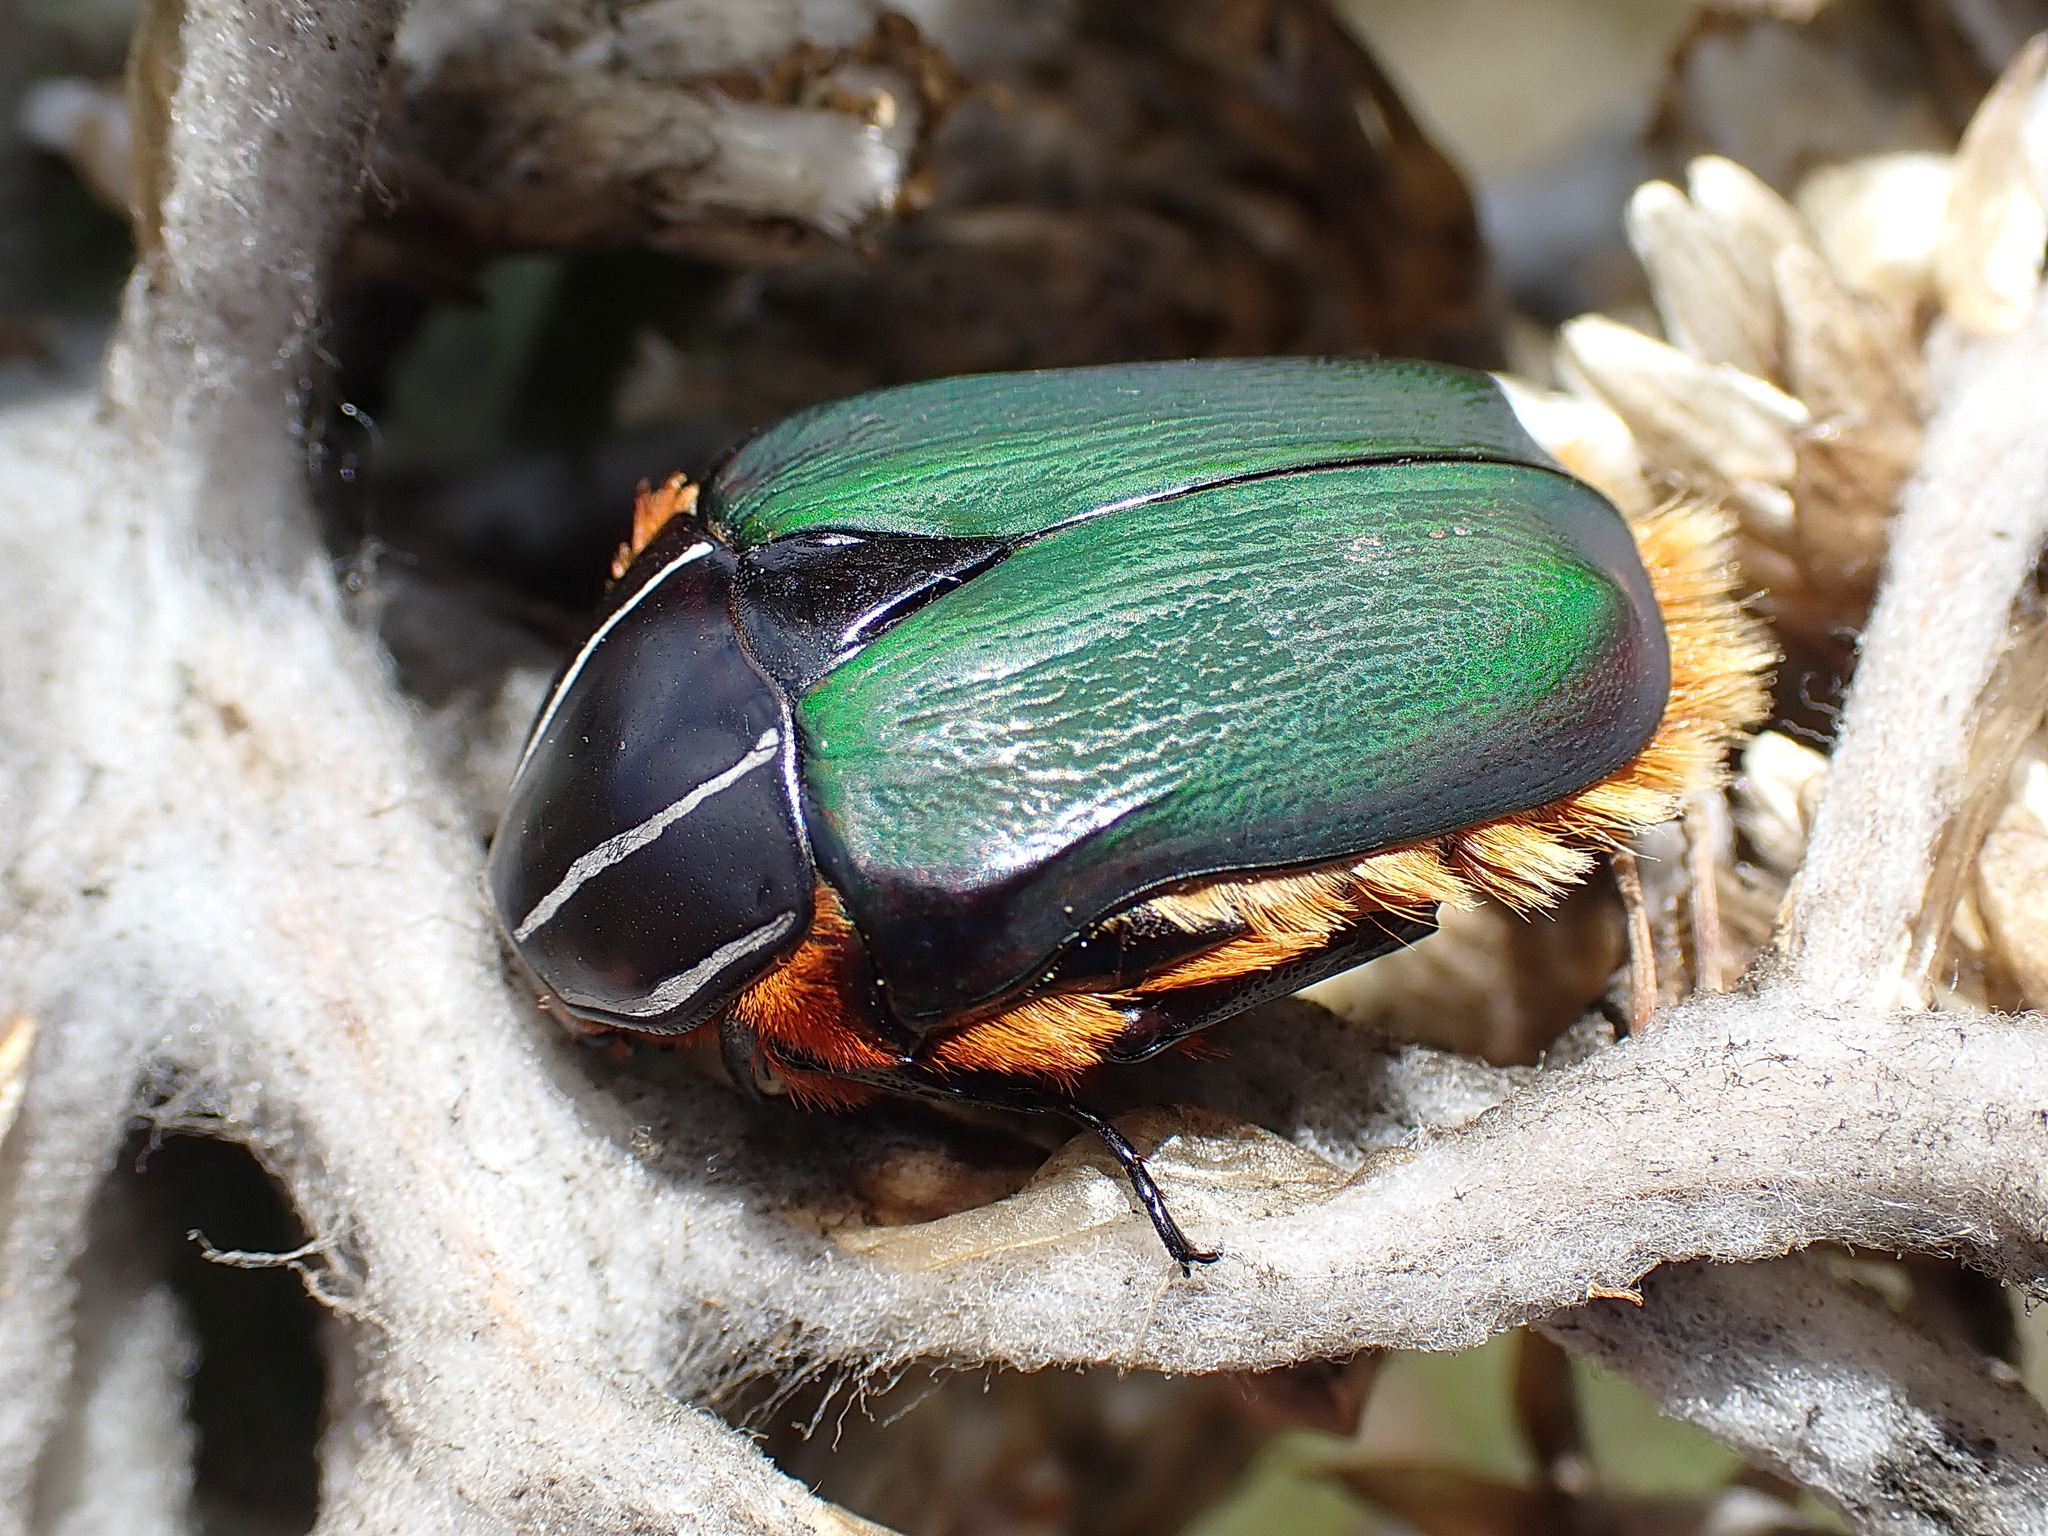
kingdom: Animalia
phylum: Arthropoda
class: Insecta
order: Coleoptera
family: Scarabaeidae
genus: Trichostetha
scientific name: Trichostetha fascicularis
